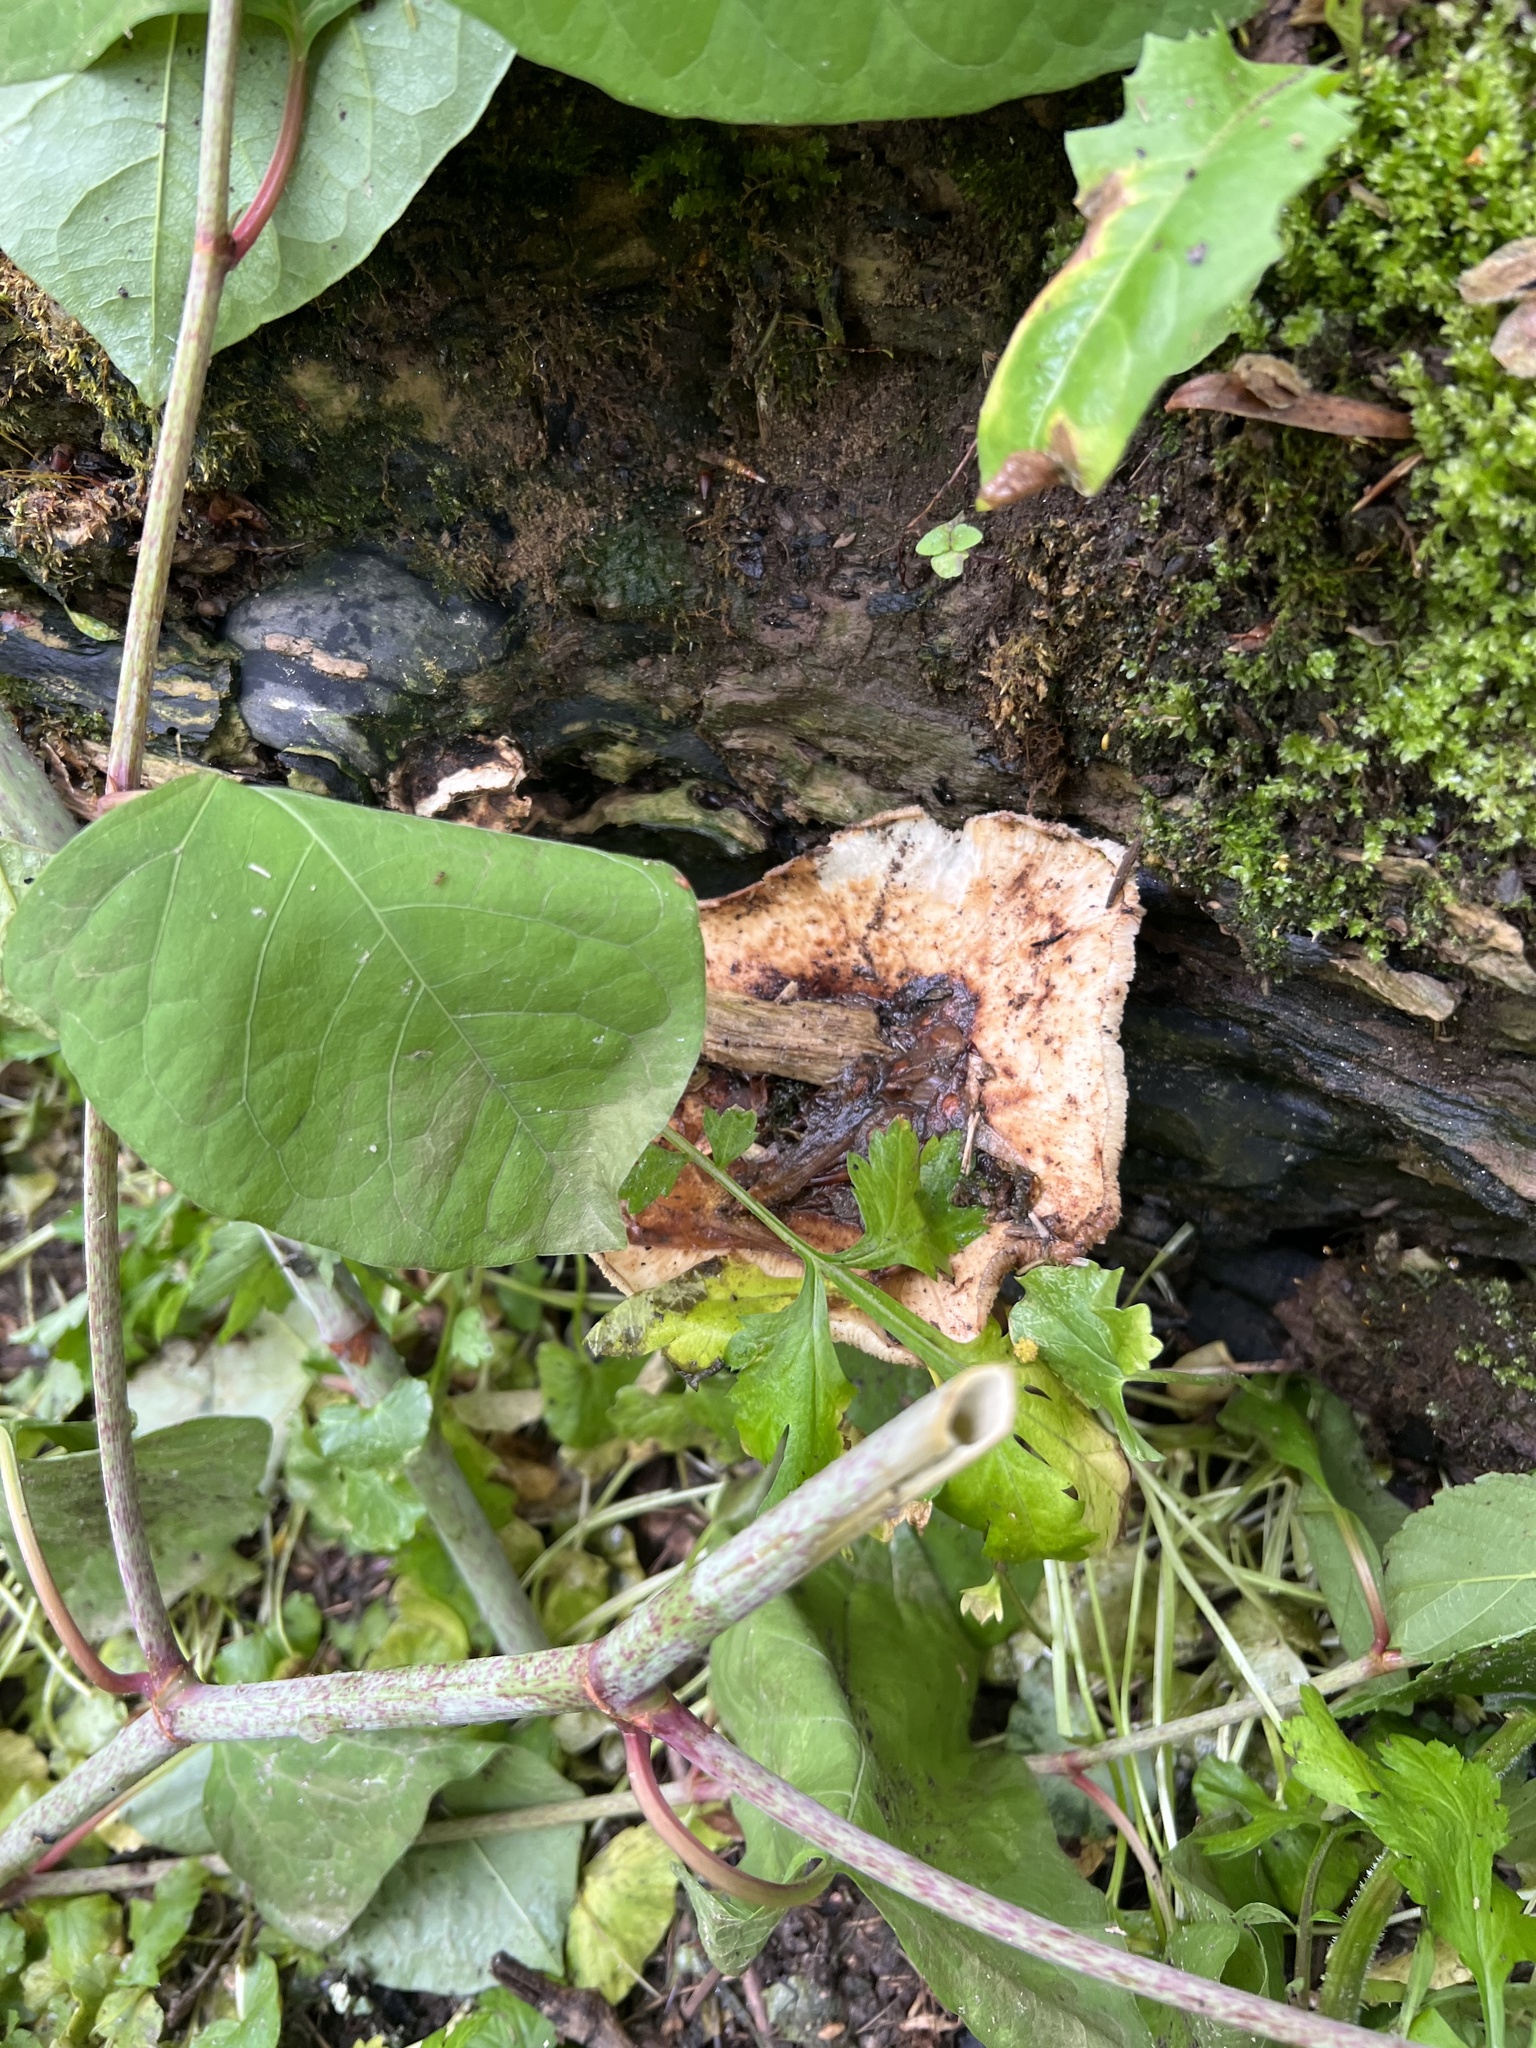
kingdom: Fungi
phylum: Basidiomycota
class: Agaricomycetes
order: Polyporales
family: Polyporaceae
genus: Cerioporus
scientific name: Cerioporus squamosus
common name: Dryad's saddle
